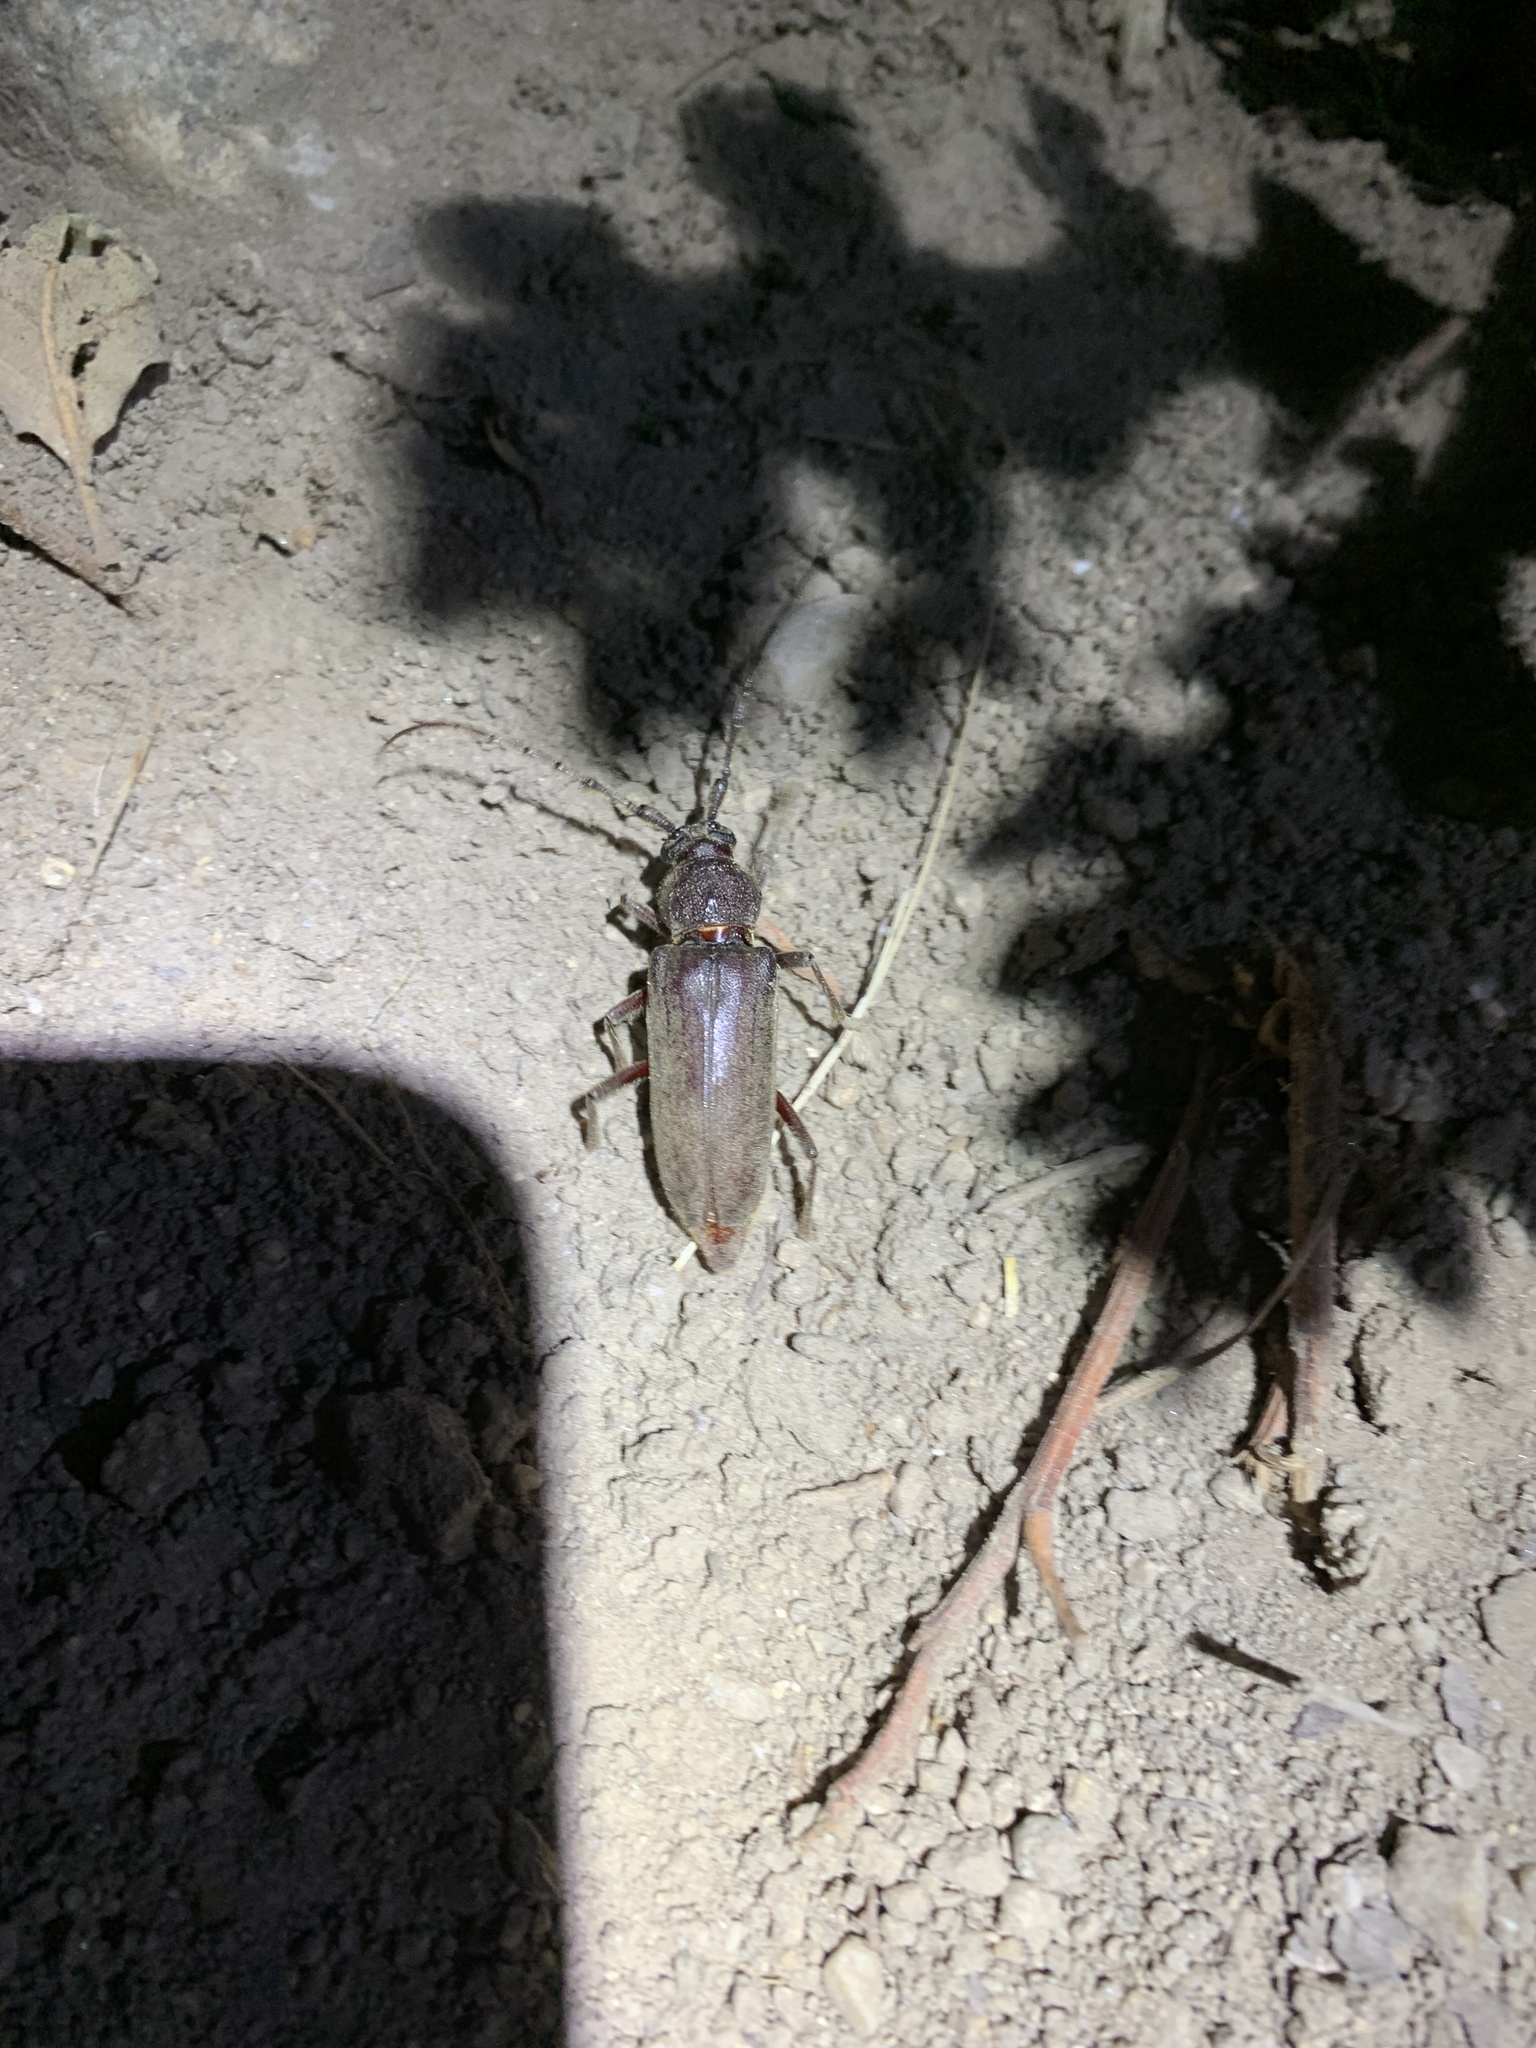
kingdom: Animalia
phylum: Arthropoda
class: Insecta
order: Coleoptera
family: Cerambycidae
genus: Enaphalodes
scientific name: Enaphalodes hispicornis
